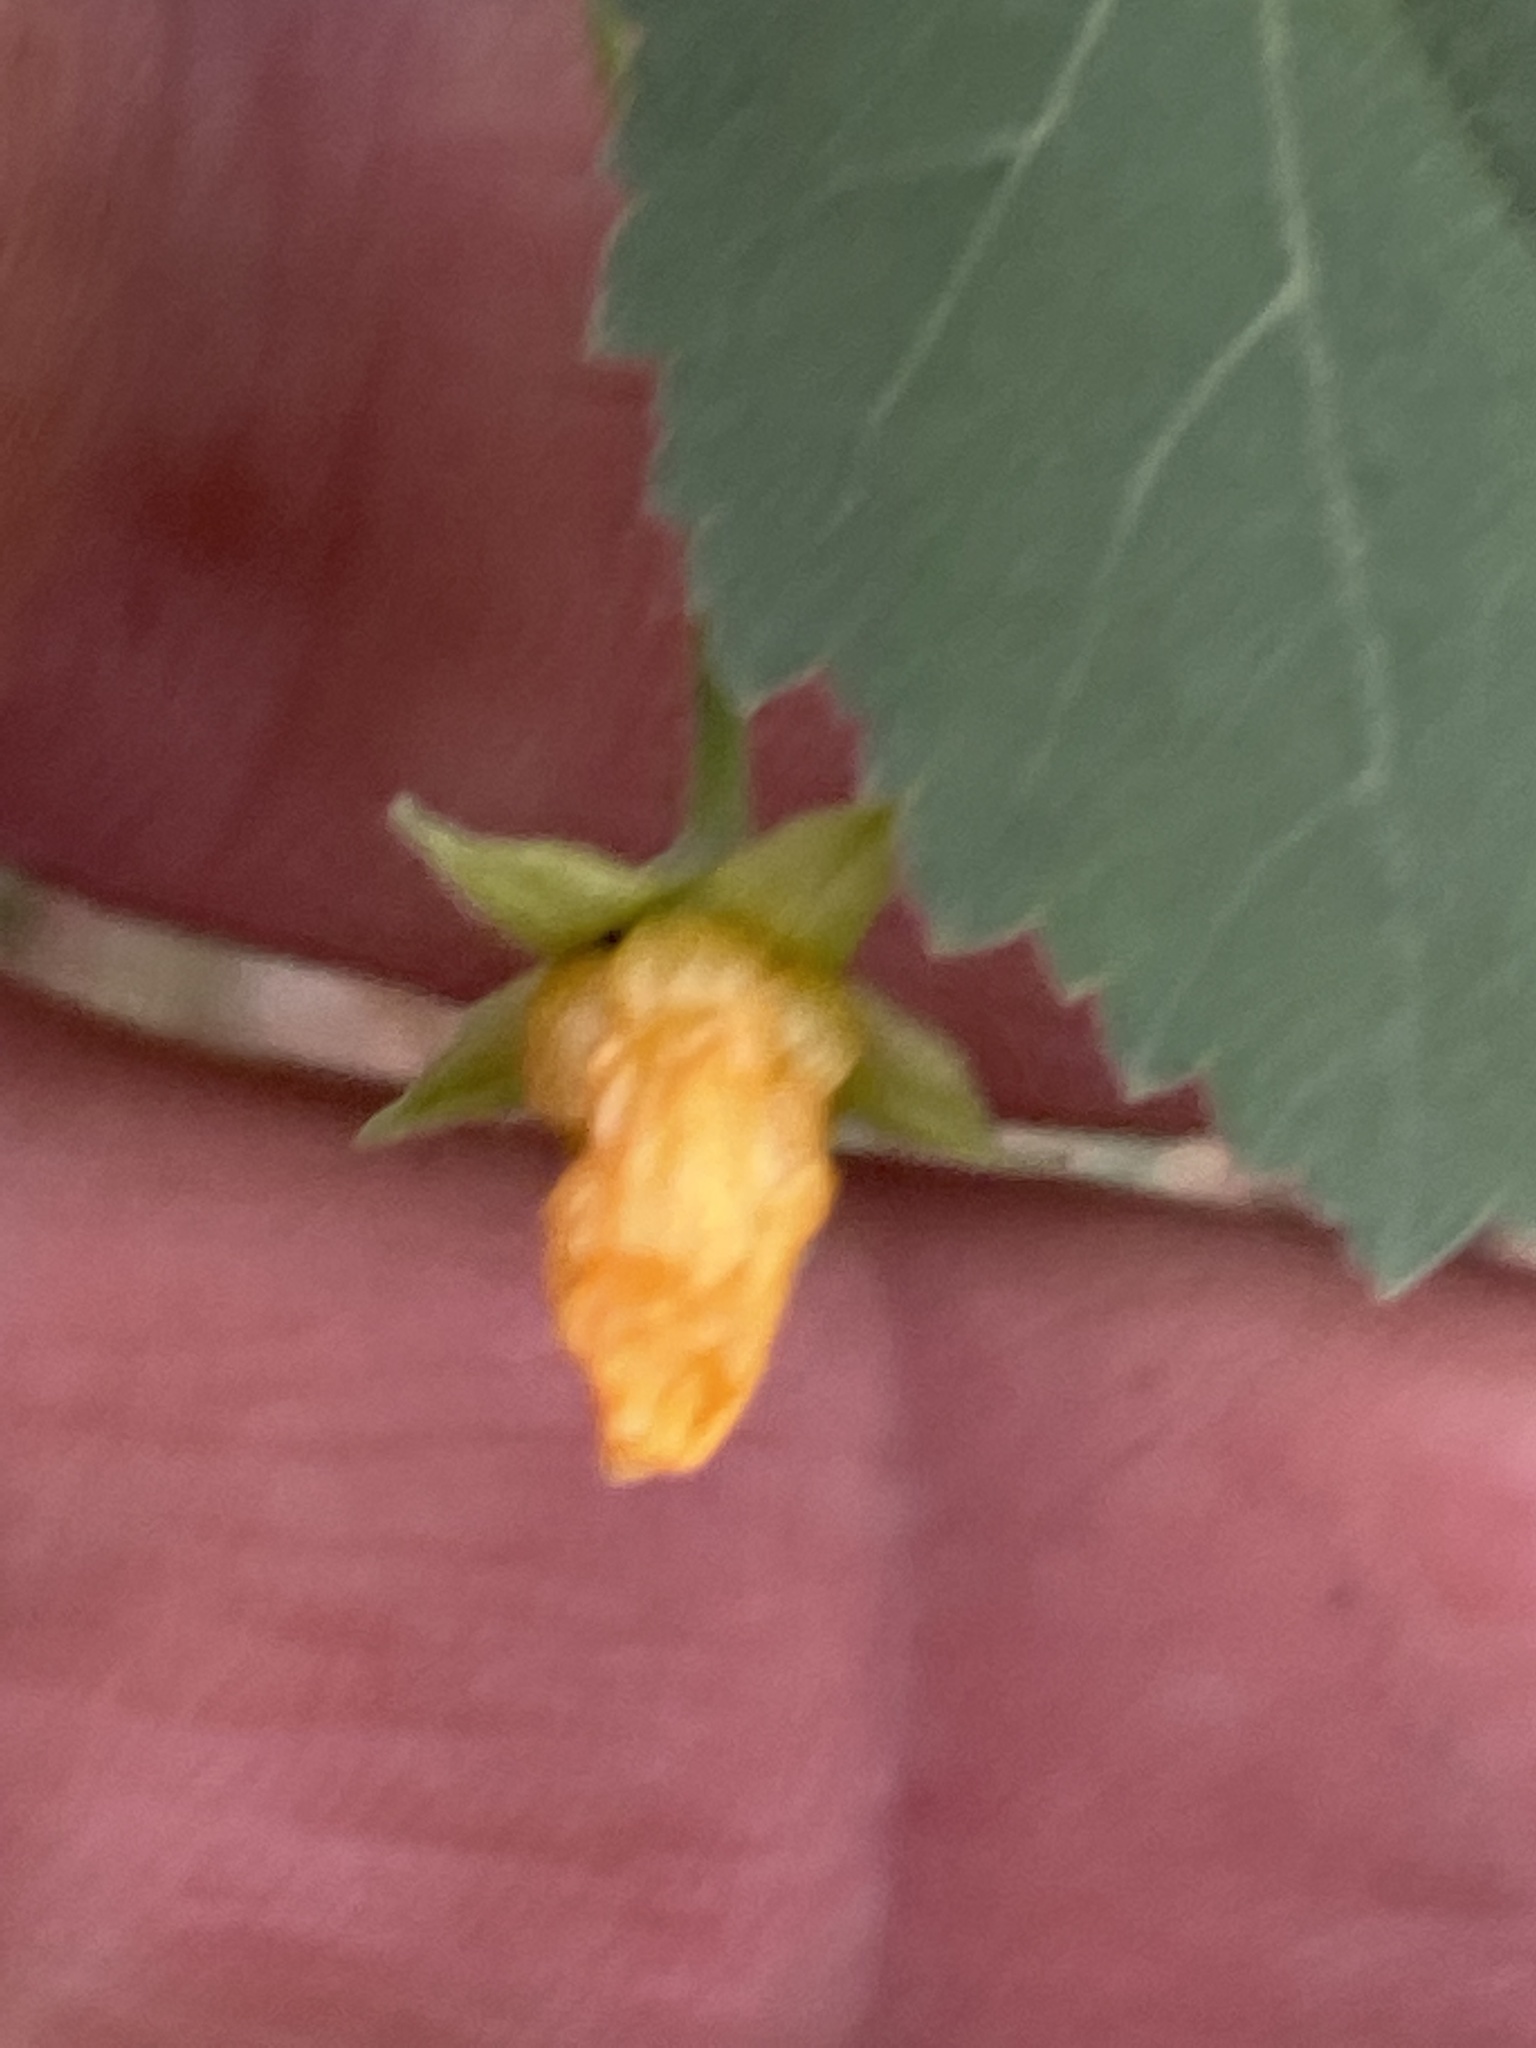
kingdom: Plantae
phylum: Tracheophyta
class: Magnoliopsida
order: Malvales
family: Malvaceae
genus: Abutilon
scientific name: Abutilon fruticosum
